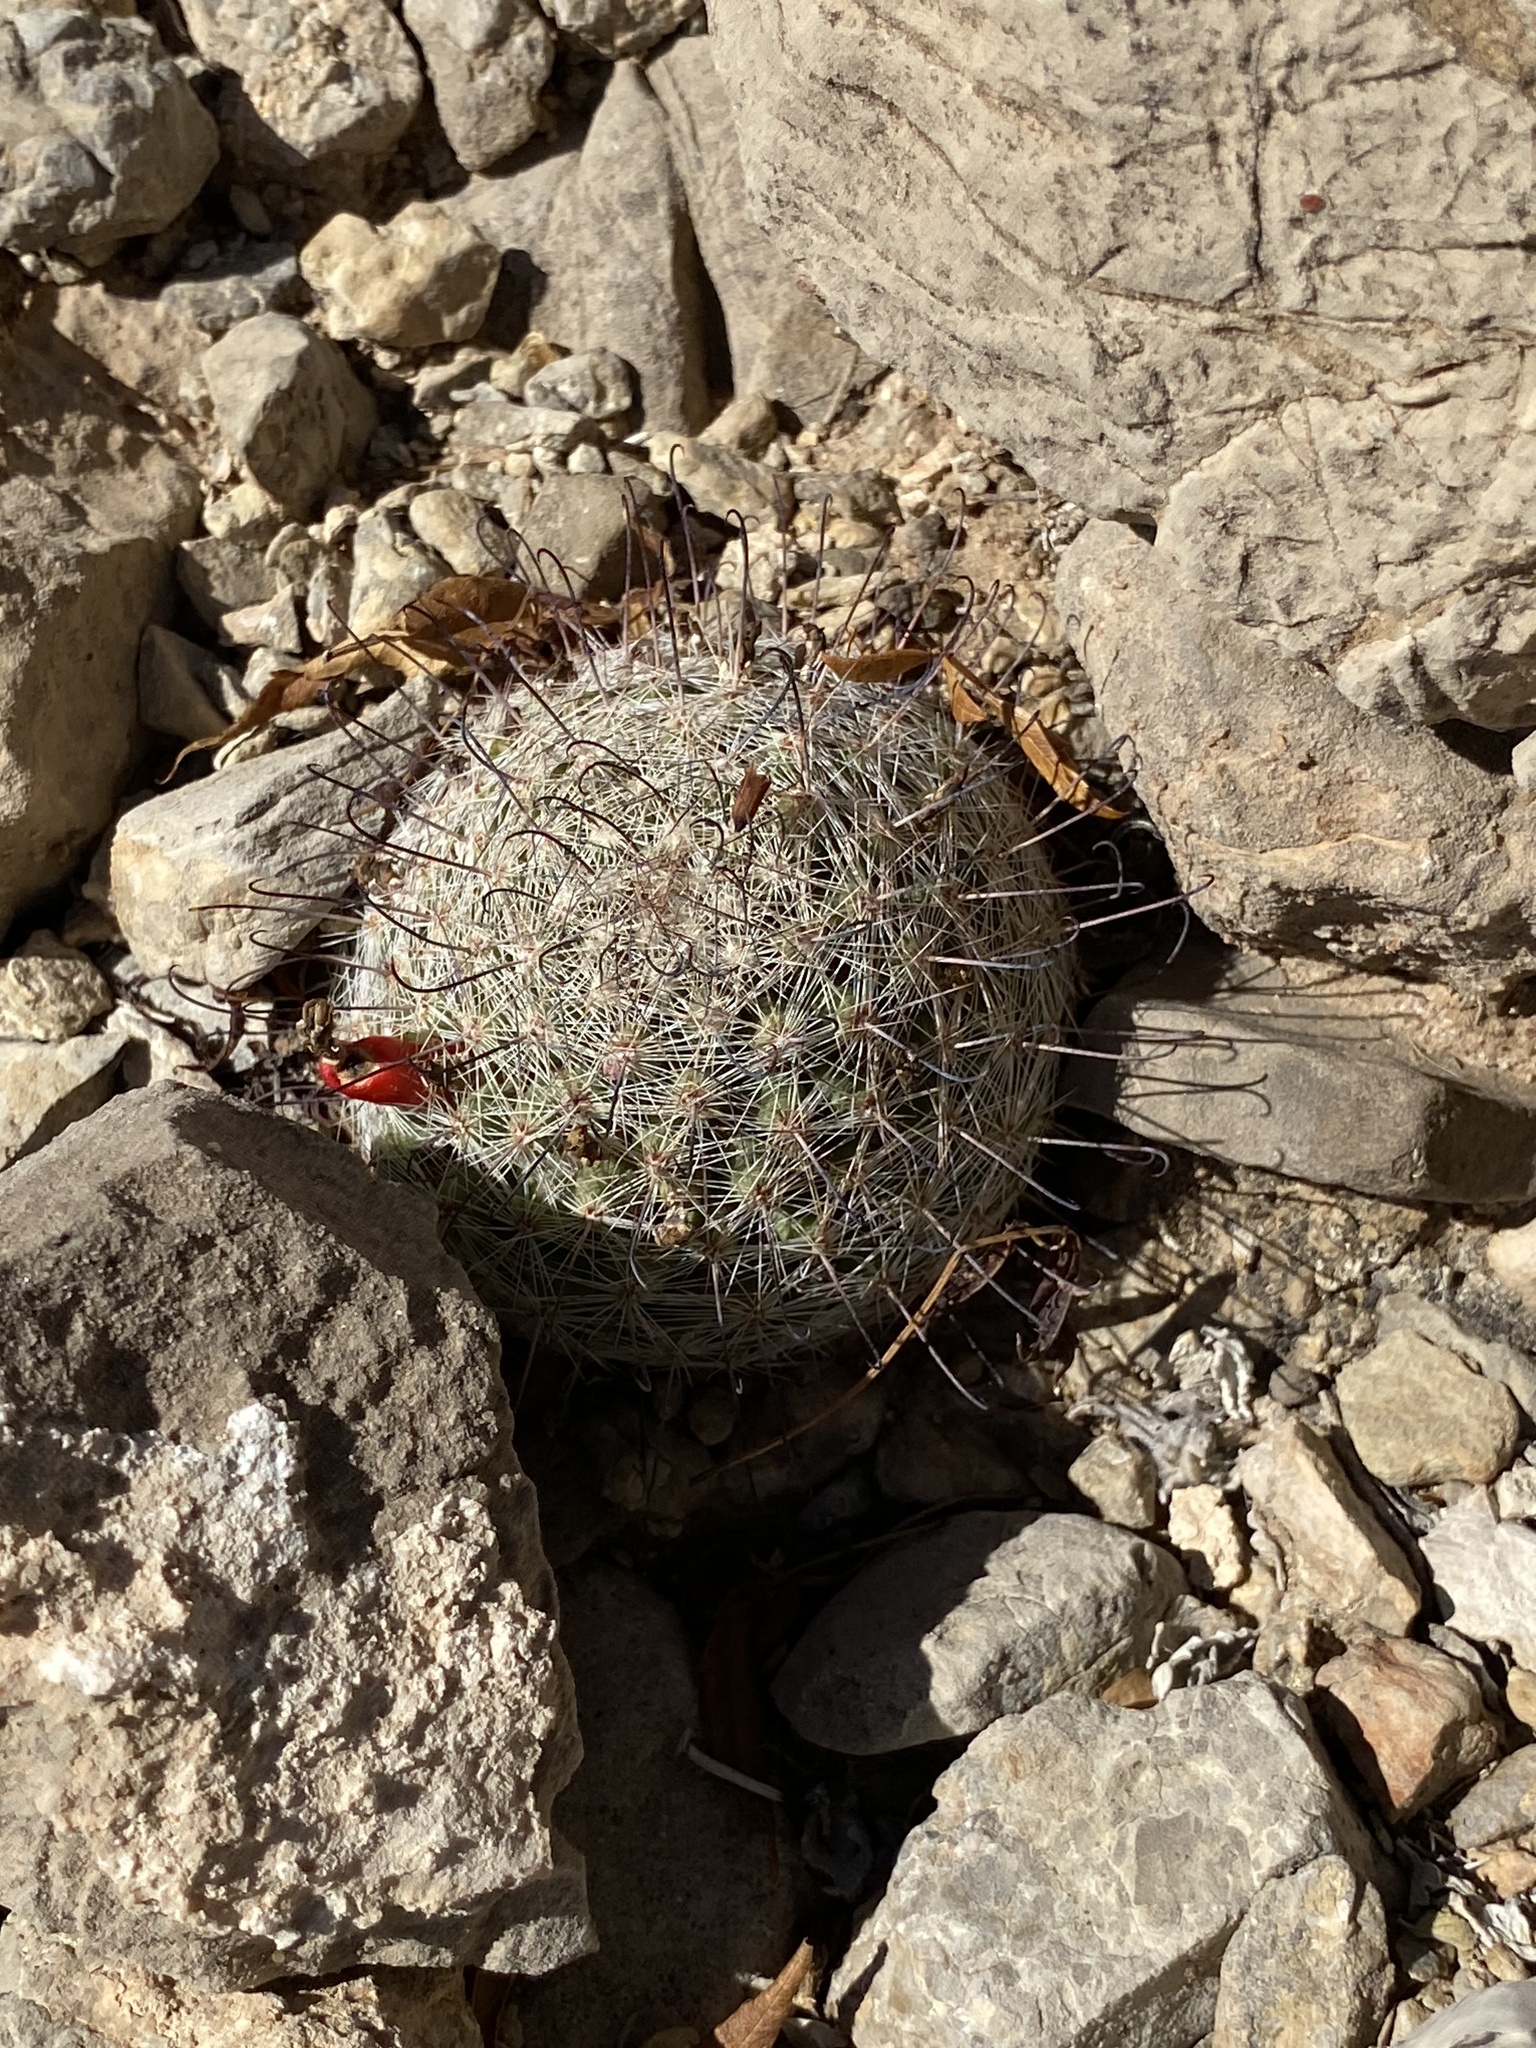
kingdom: Plantae
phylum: Tracheophyta
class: Magnoliopsida
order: Caryophyllales
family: Cactaceae
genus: Cochemiea
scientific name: Cochemiea grahamii
